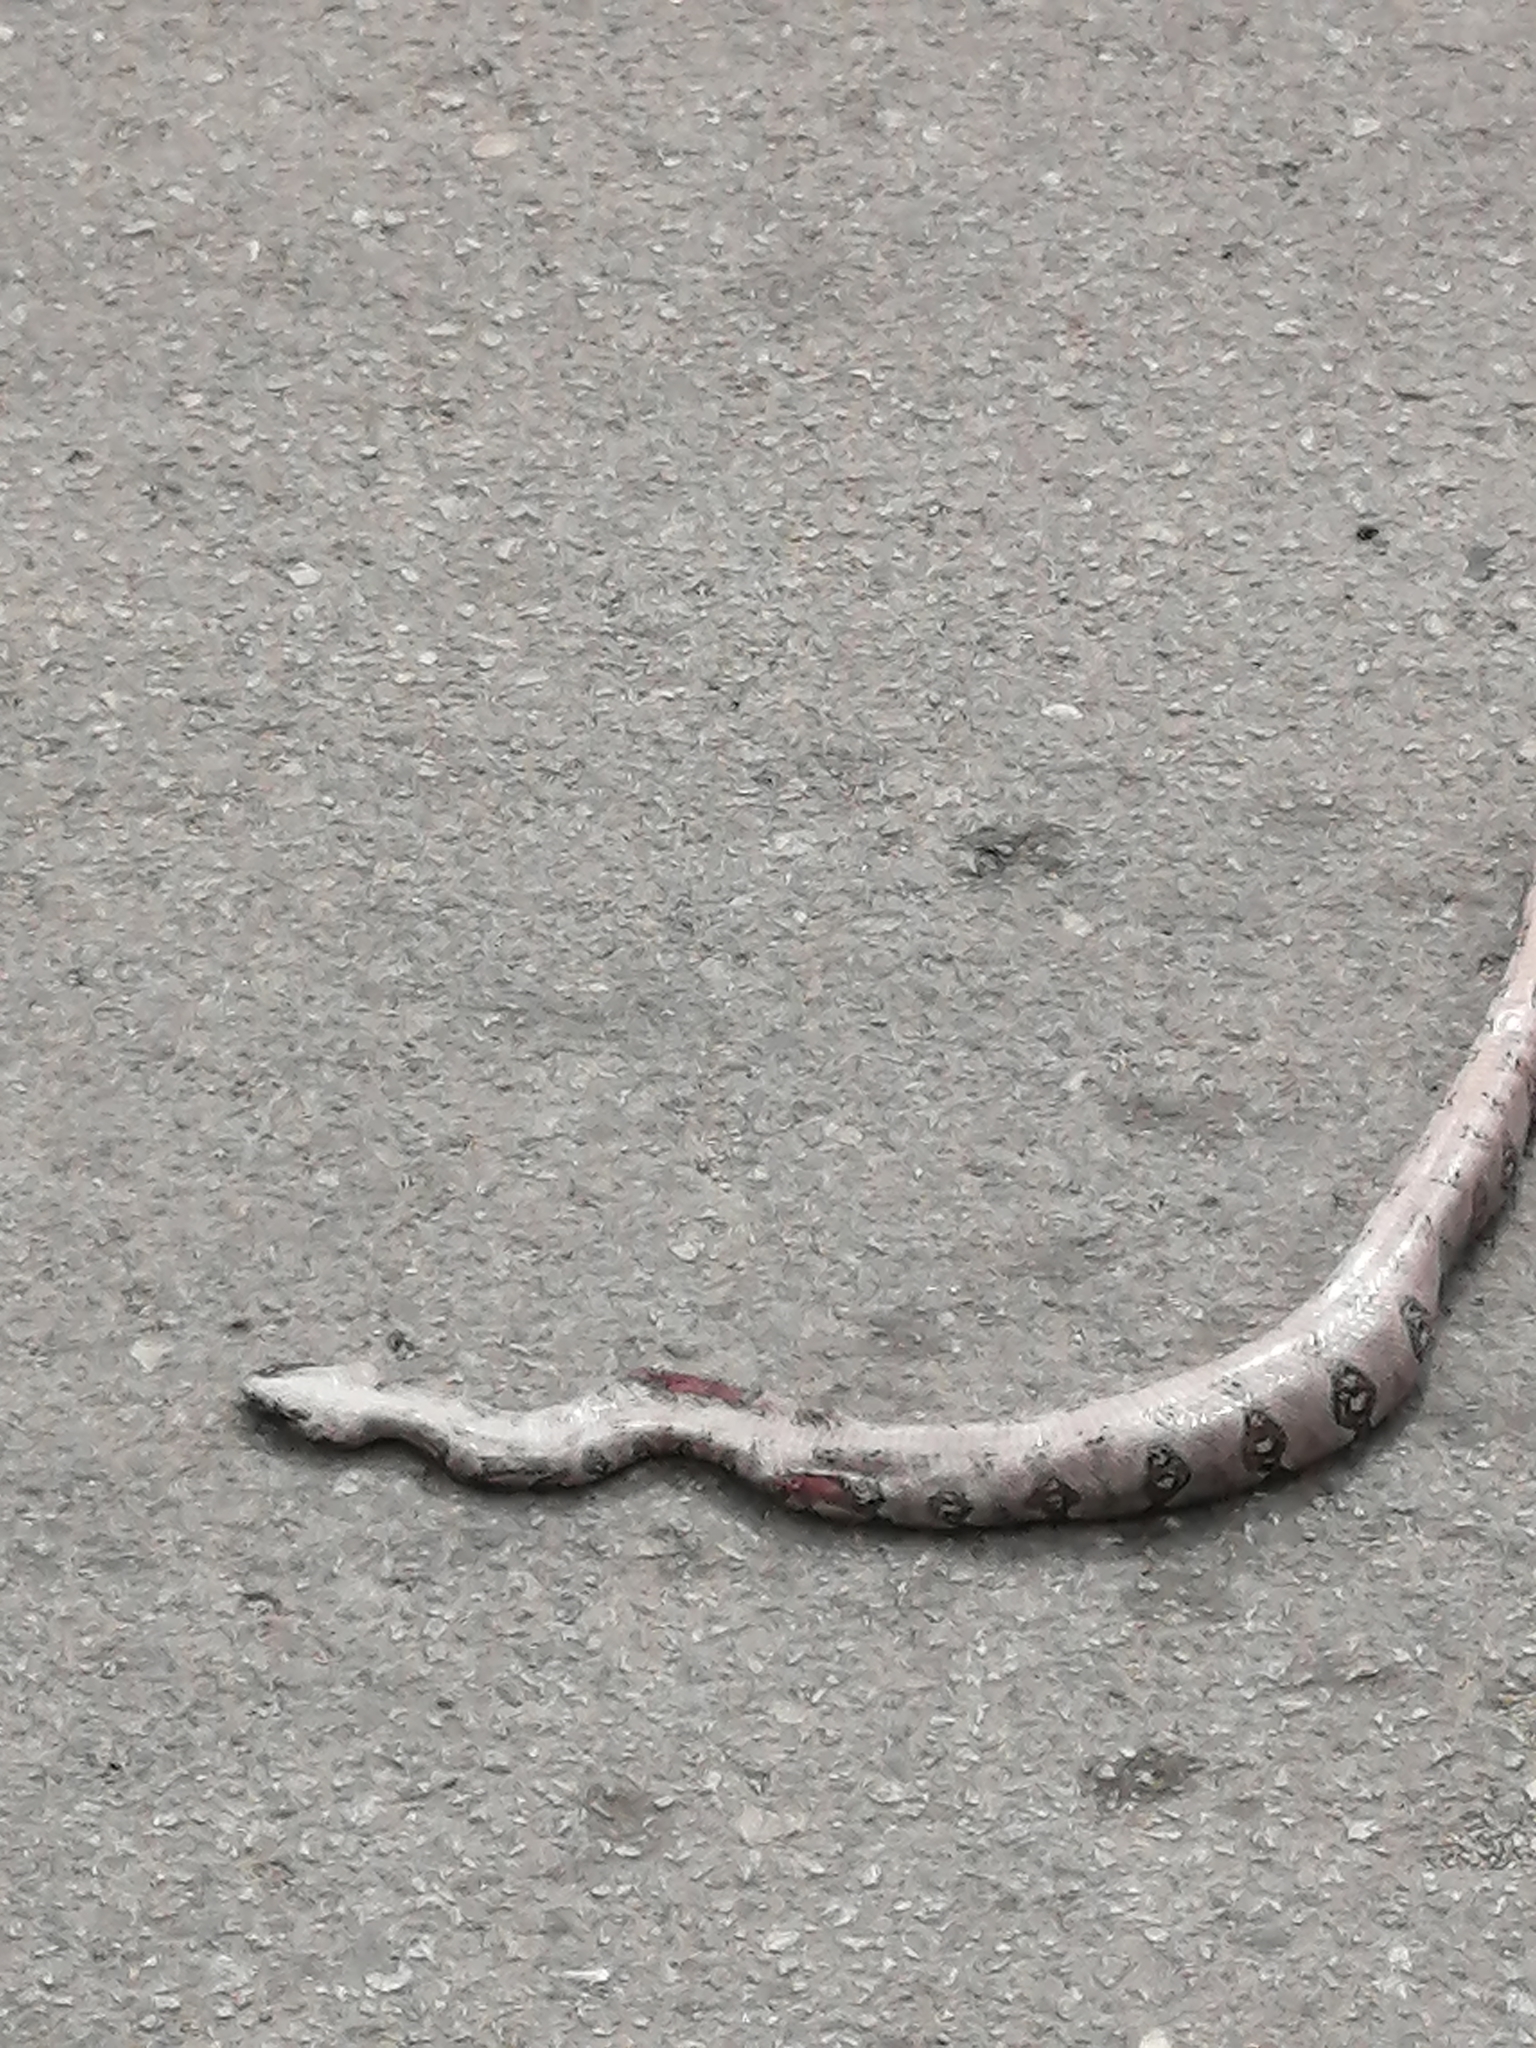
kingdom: Animalia
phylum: Chordata
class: Squamata
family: Boidae
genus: Boa
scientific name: Boa imperator
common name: Central american boa
